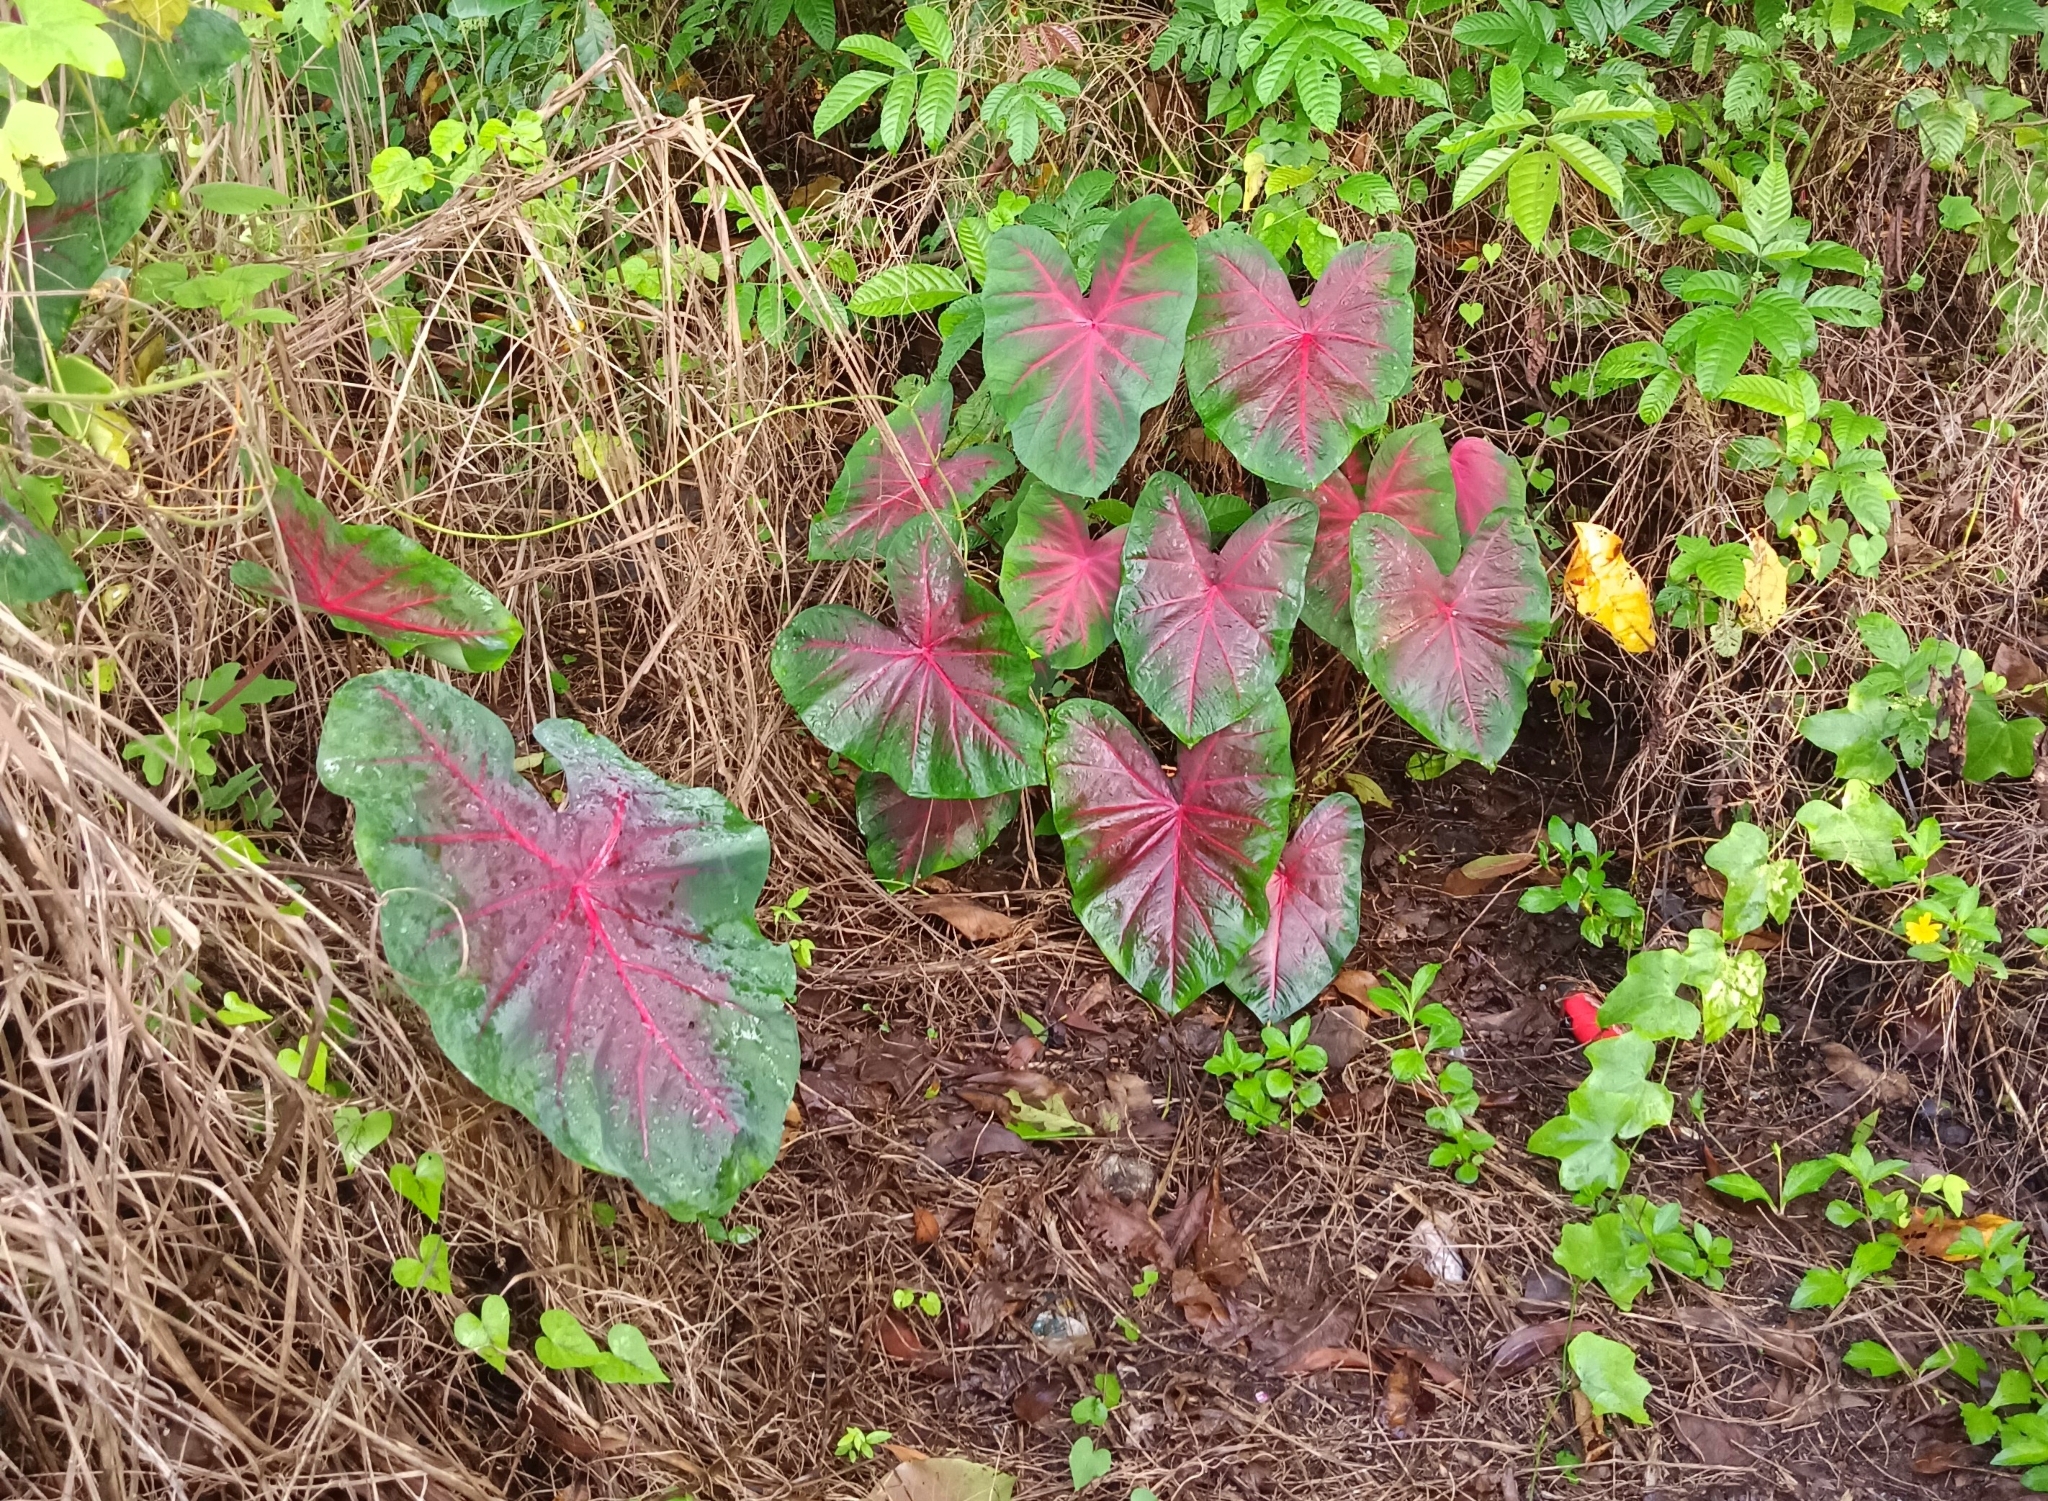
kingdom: Plantae
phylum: Tracheophyta
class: Liliopsida
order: Alismatales
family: Araceae
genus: Caladium
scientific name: Caladium bicolor
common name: Artist's pallet
